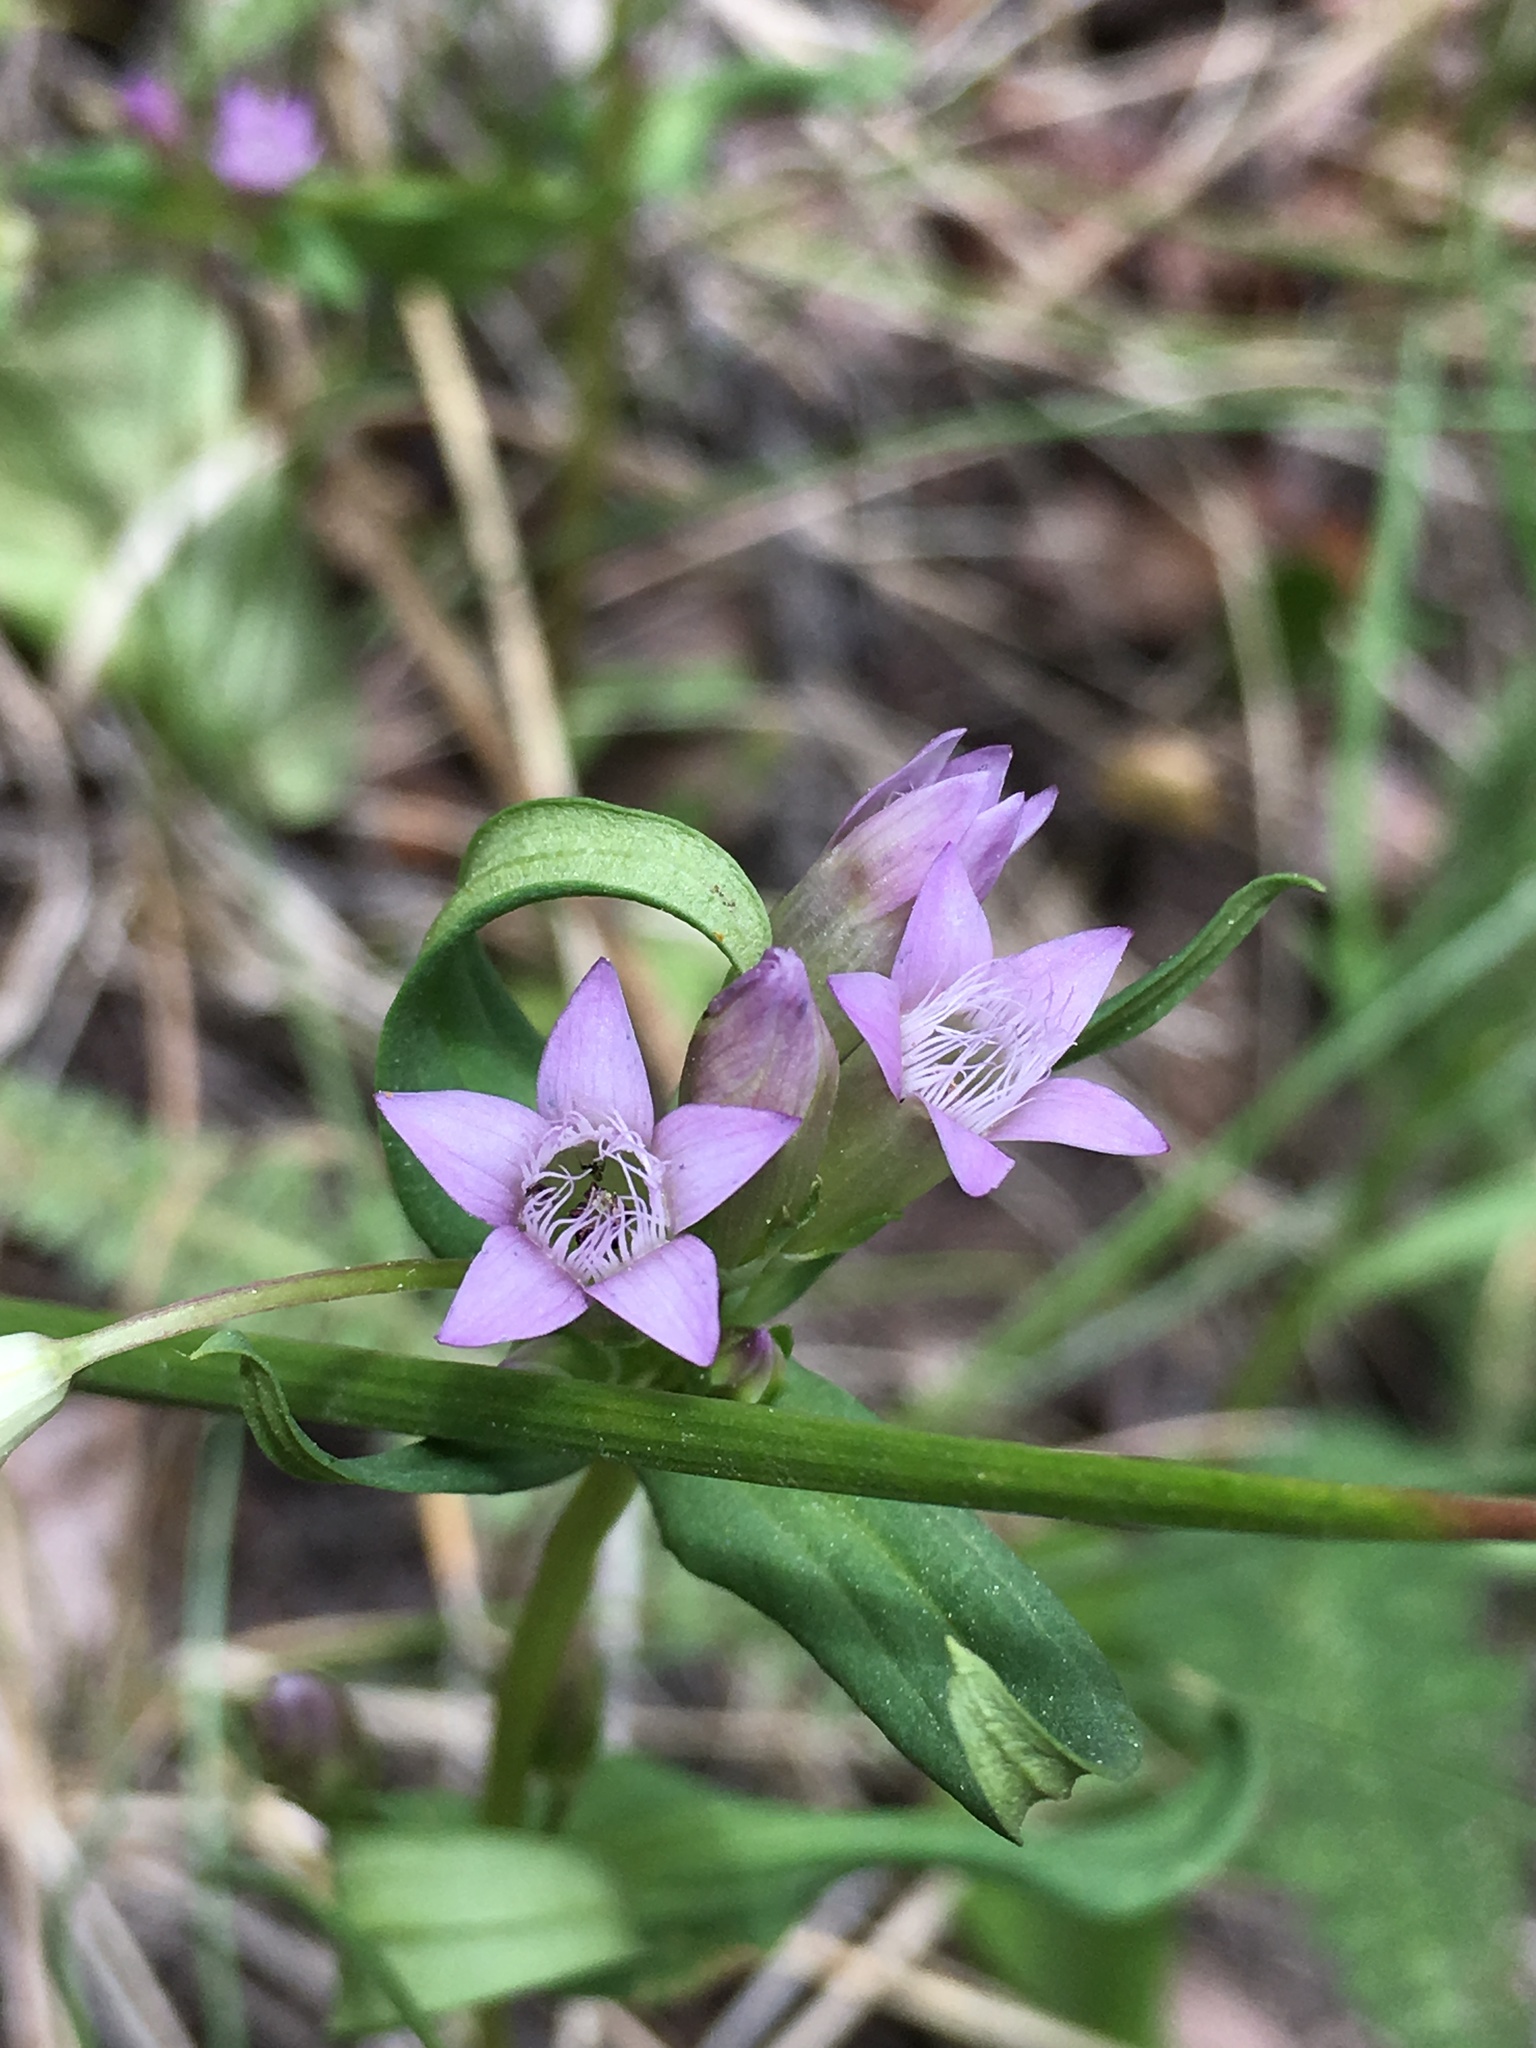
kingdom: Plantae
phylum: Tracheophyta
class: Magnoliopsida
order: Gentianales
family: Gentianaceae
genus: Gentianella
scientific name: Gentianella amarella
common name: Autumn gentian
